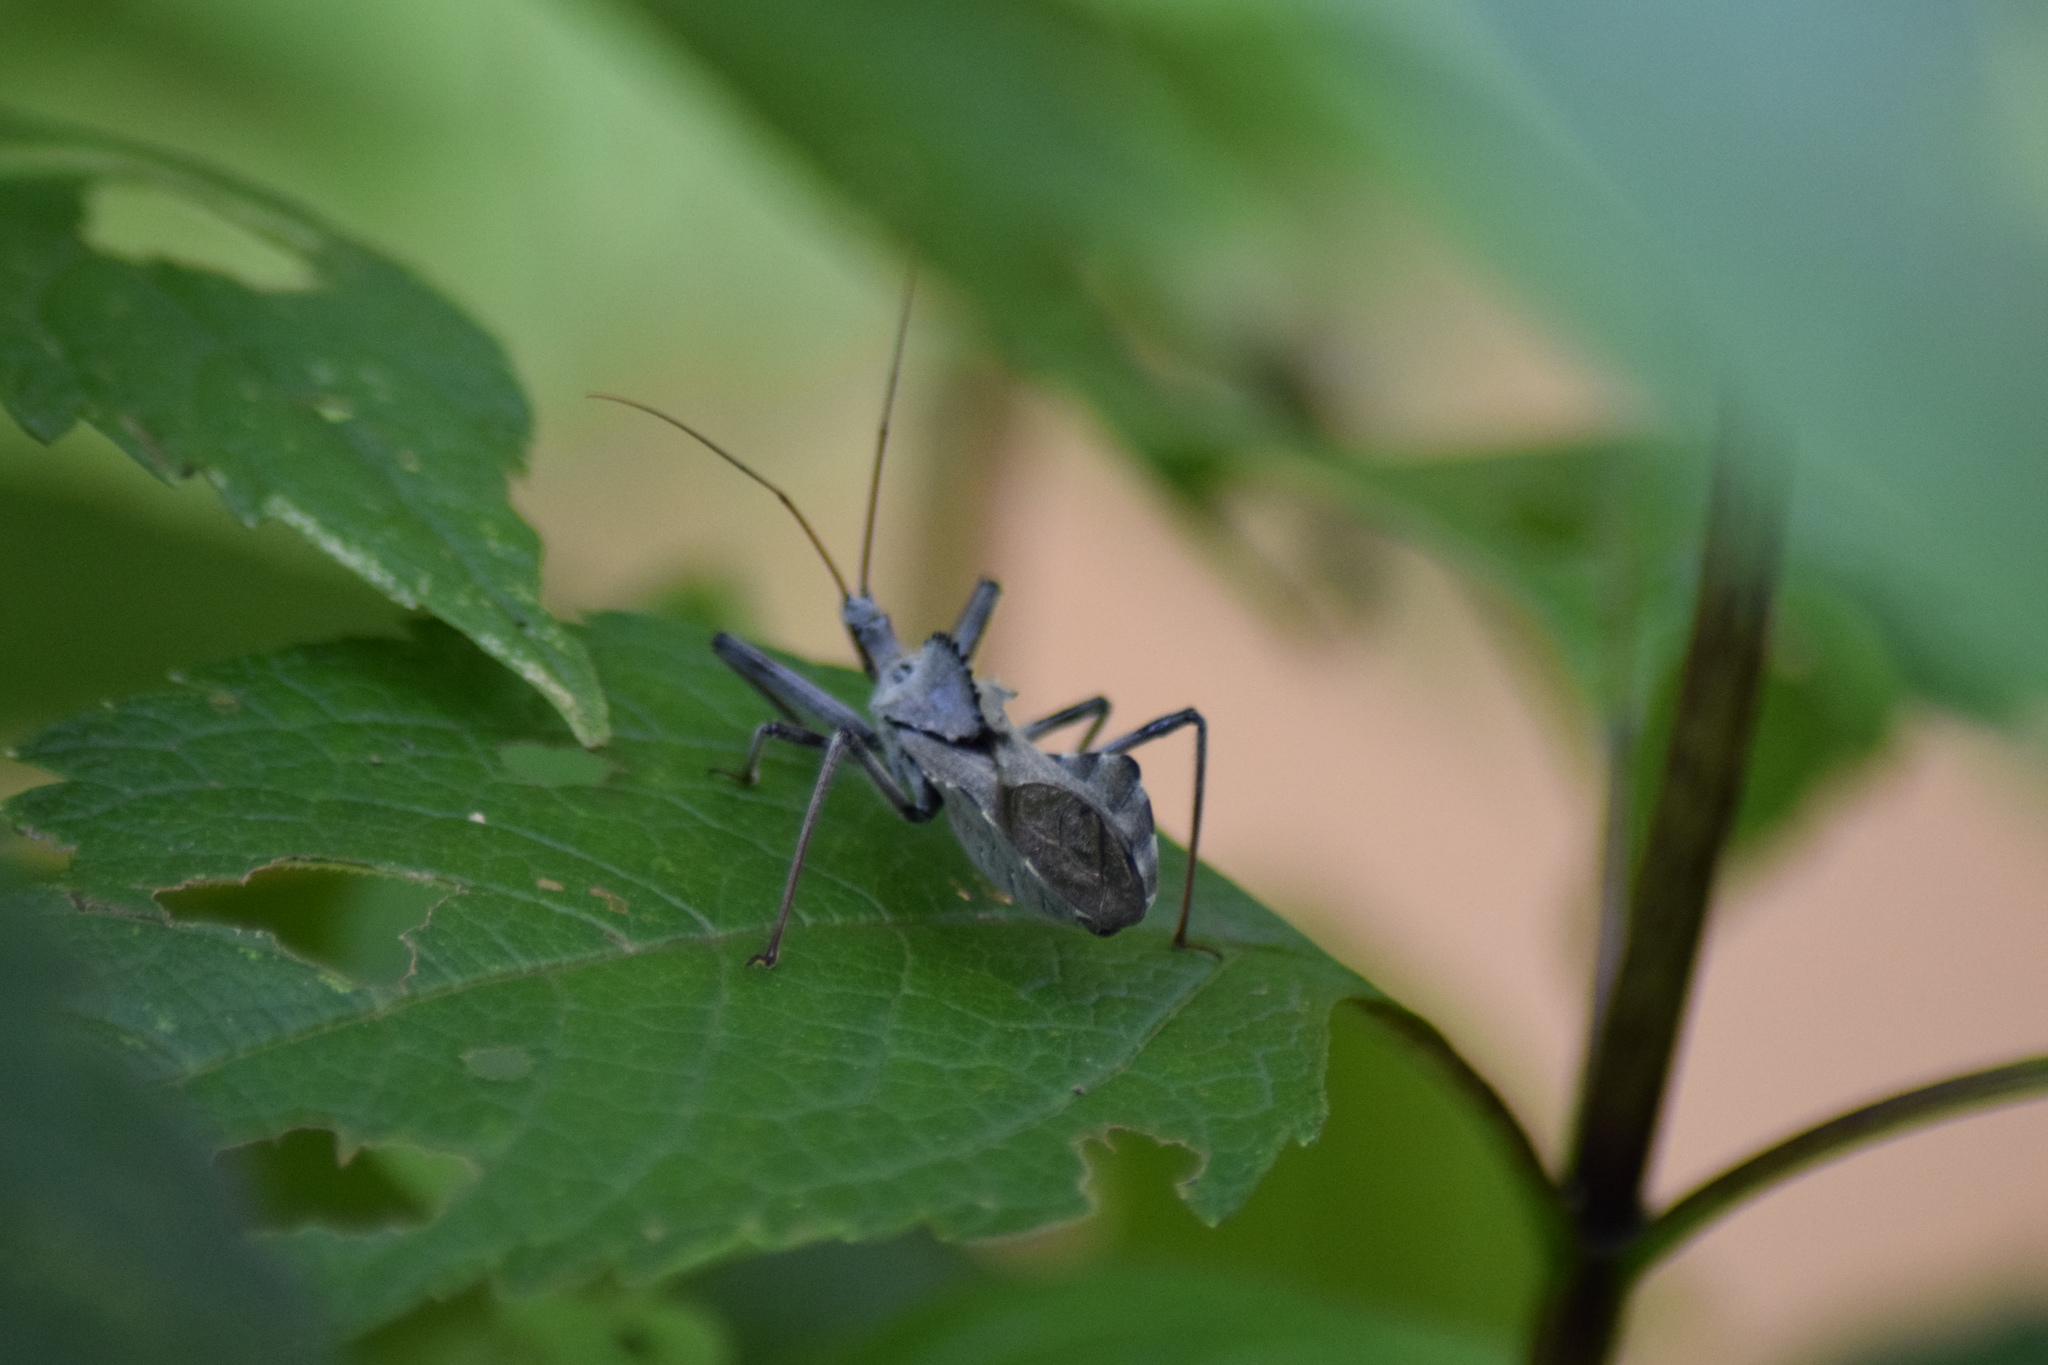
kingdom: Animalia
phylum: Arthropoda
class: Insecta
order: Hemiptera
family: Reduviidae
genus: Arilus
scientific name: Arilus cristatus
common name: North american wheel bug
